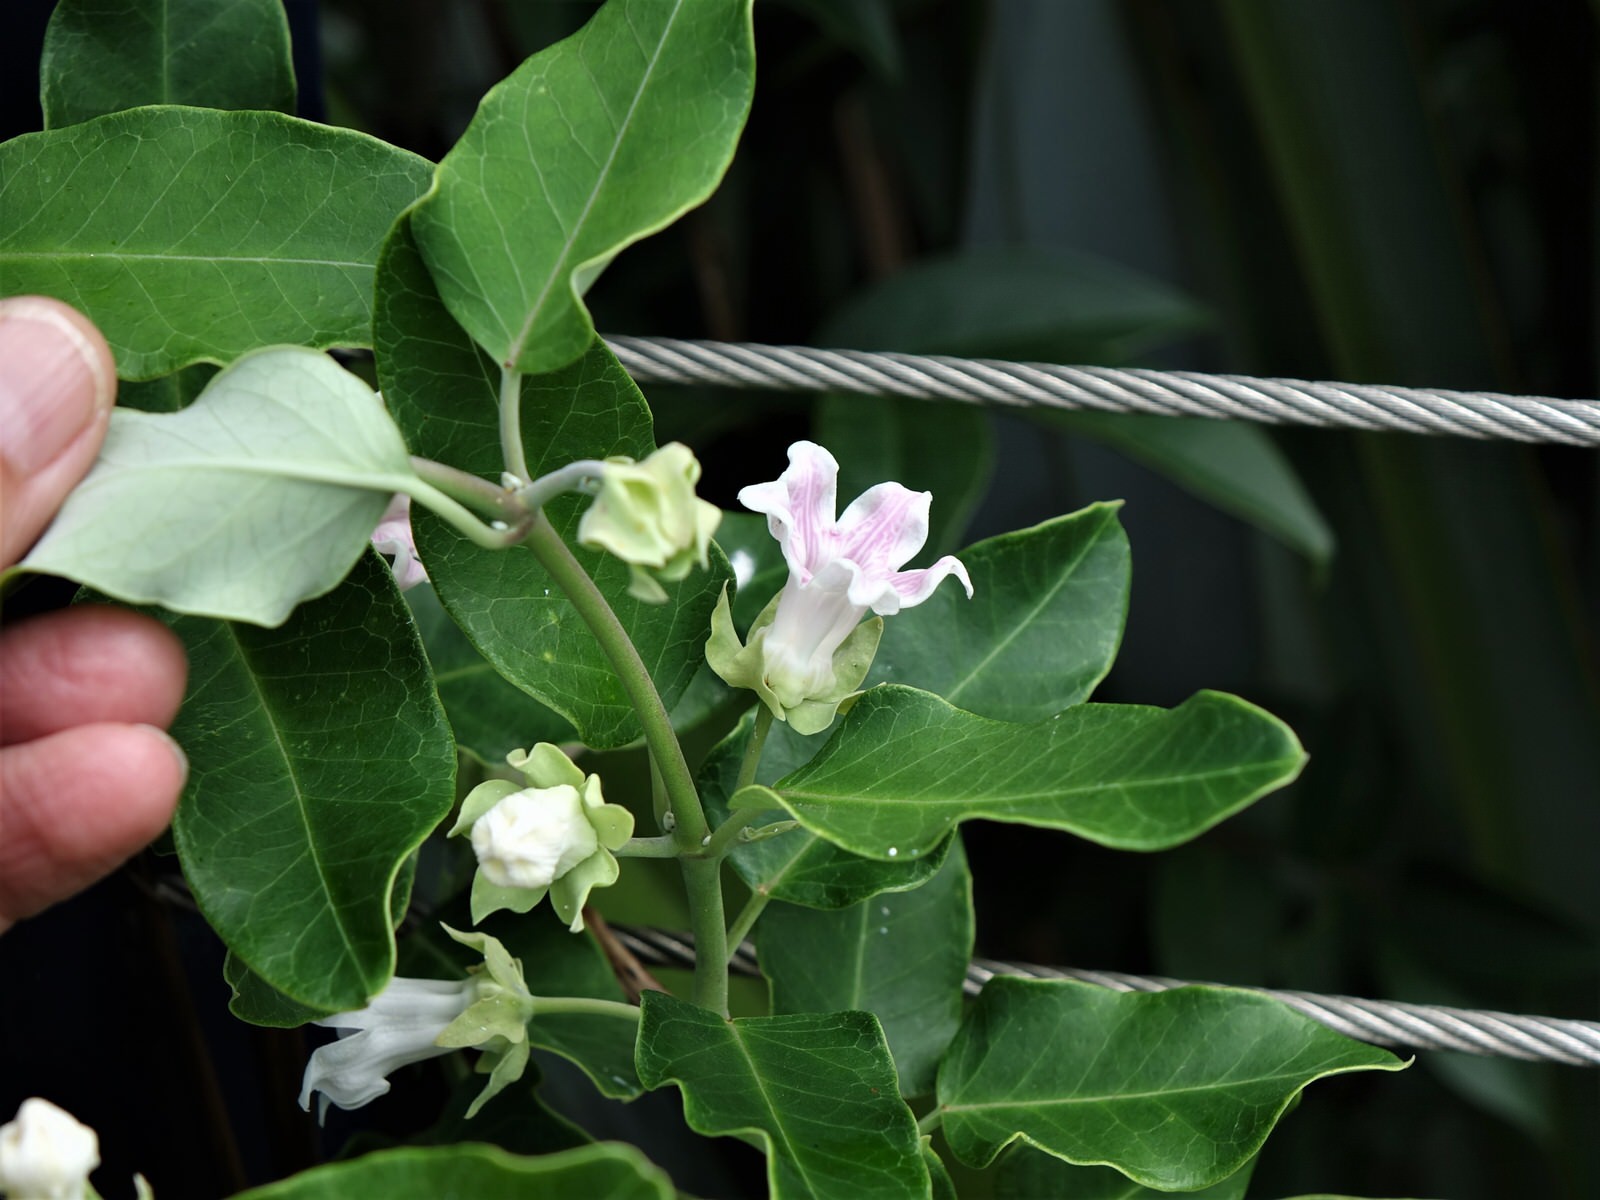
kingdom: Plantae
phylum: Tracheophyta
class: Magnoliopsida
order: Gentianales
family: Apocynaceae
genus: Araujia
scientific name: Araujia sericifera
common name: White bladderflower
